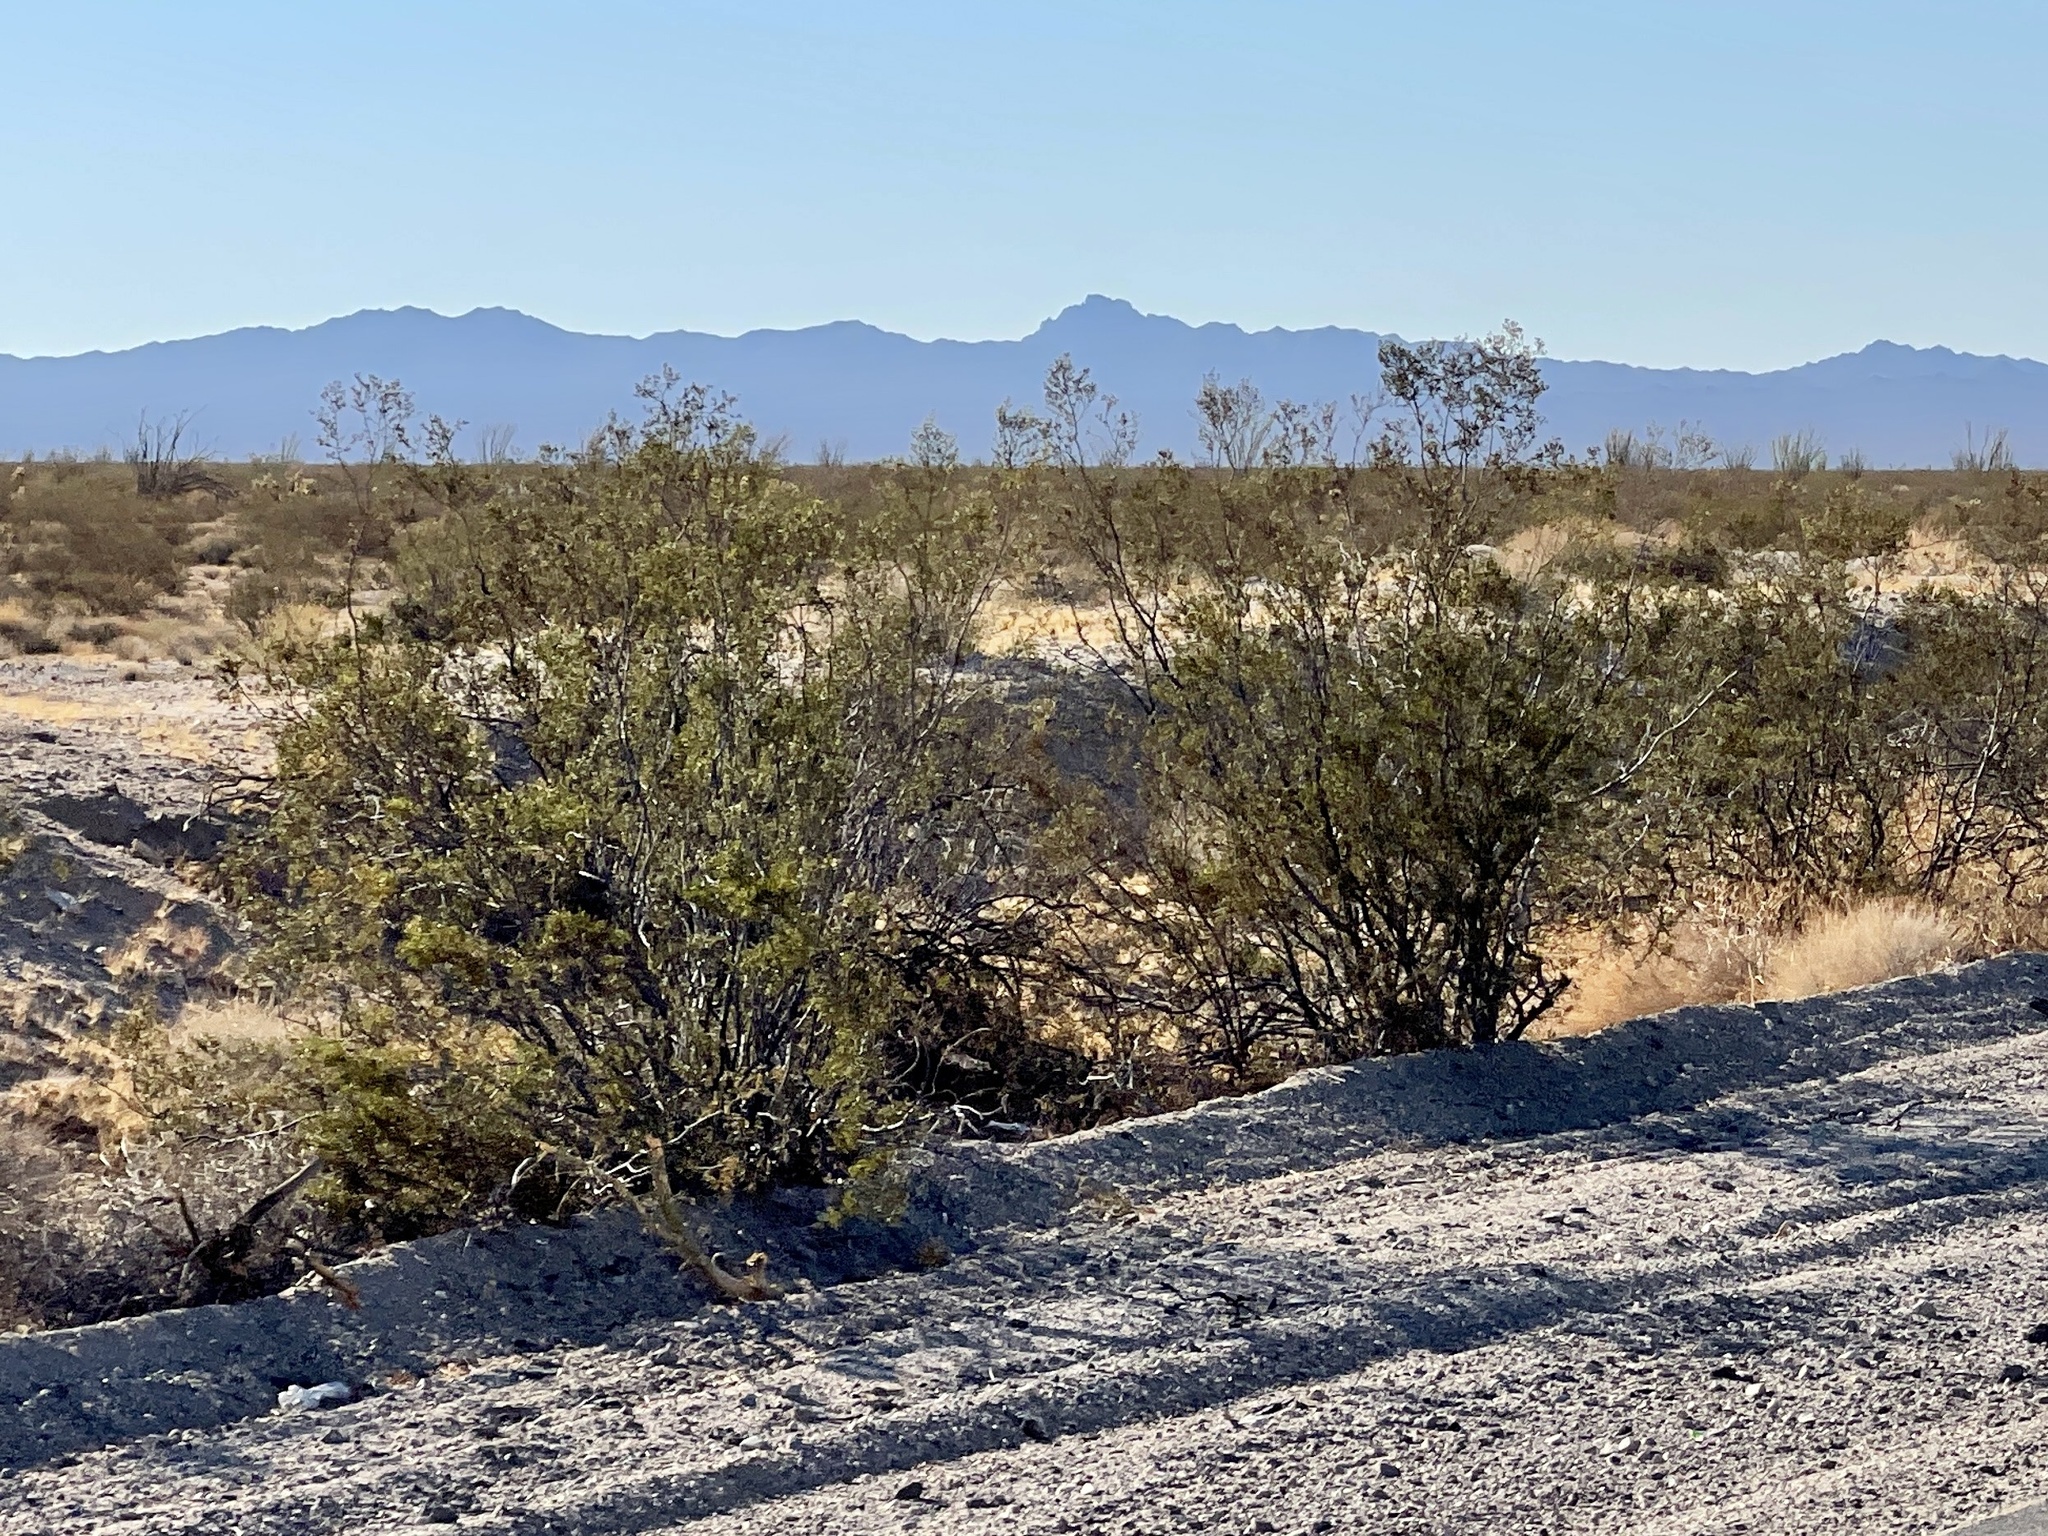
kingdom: Plantae
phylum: Tracheophyta
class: Magnoliopsida
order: Zygophyllales
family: Zygophyllaceae
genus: Larrea
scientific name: Larrea tridentata
